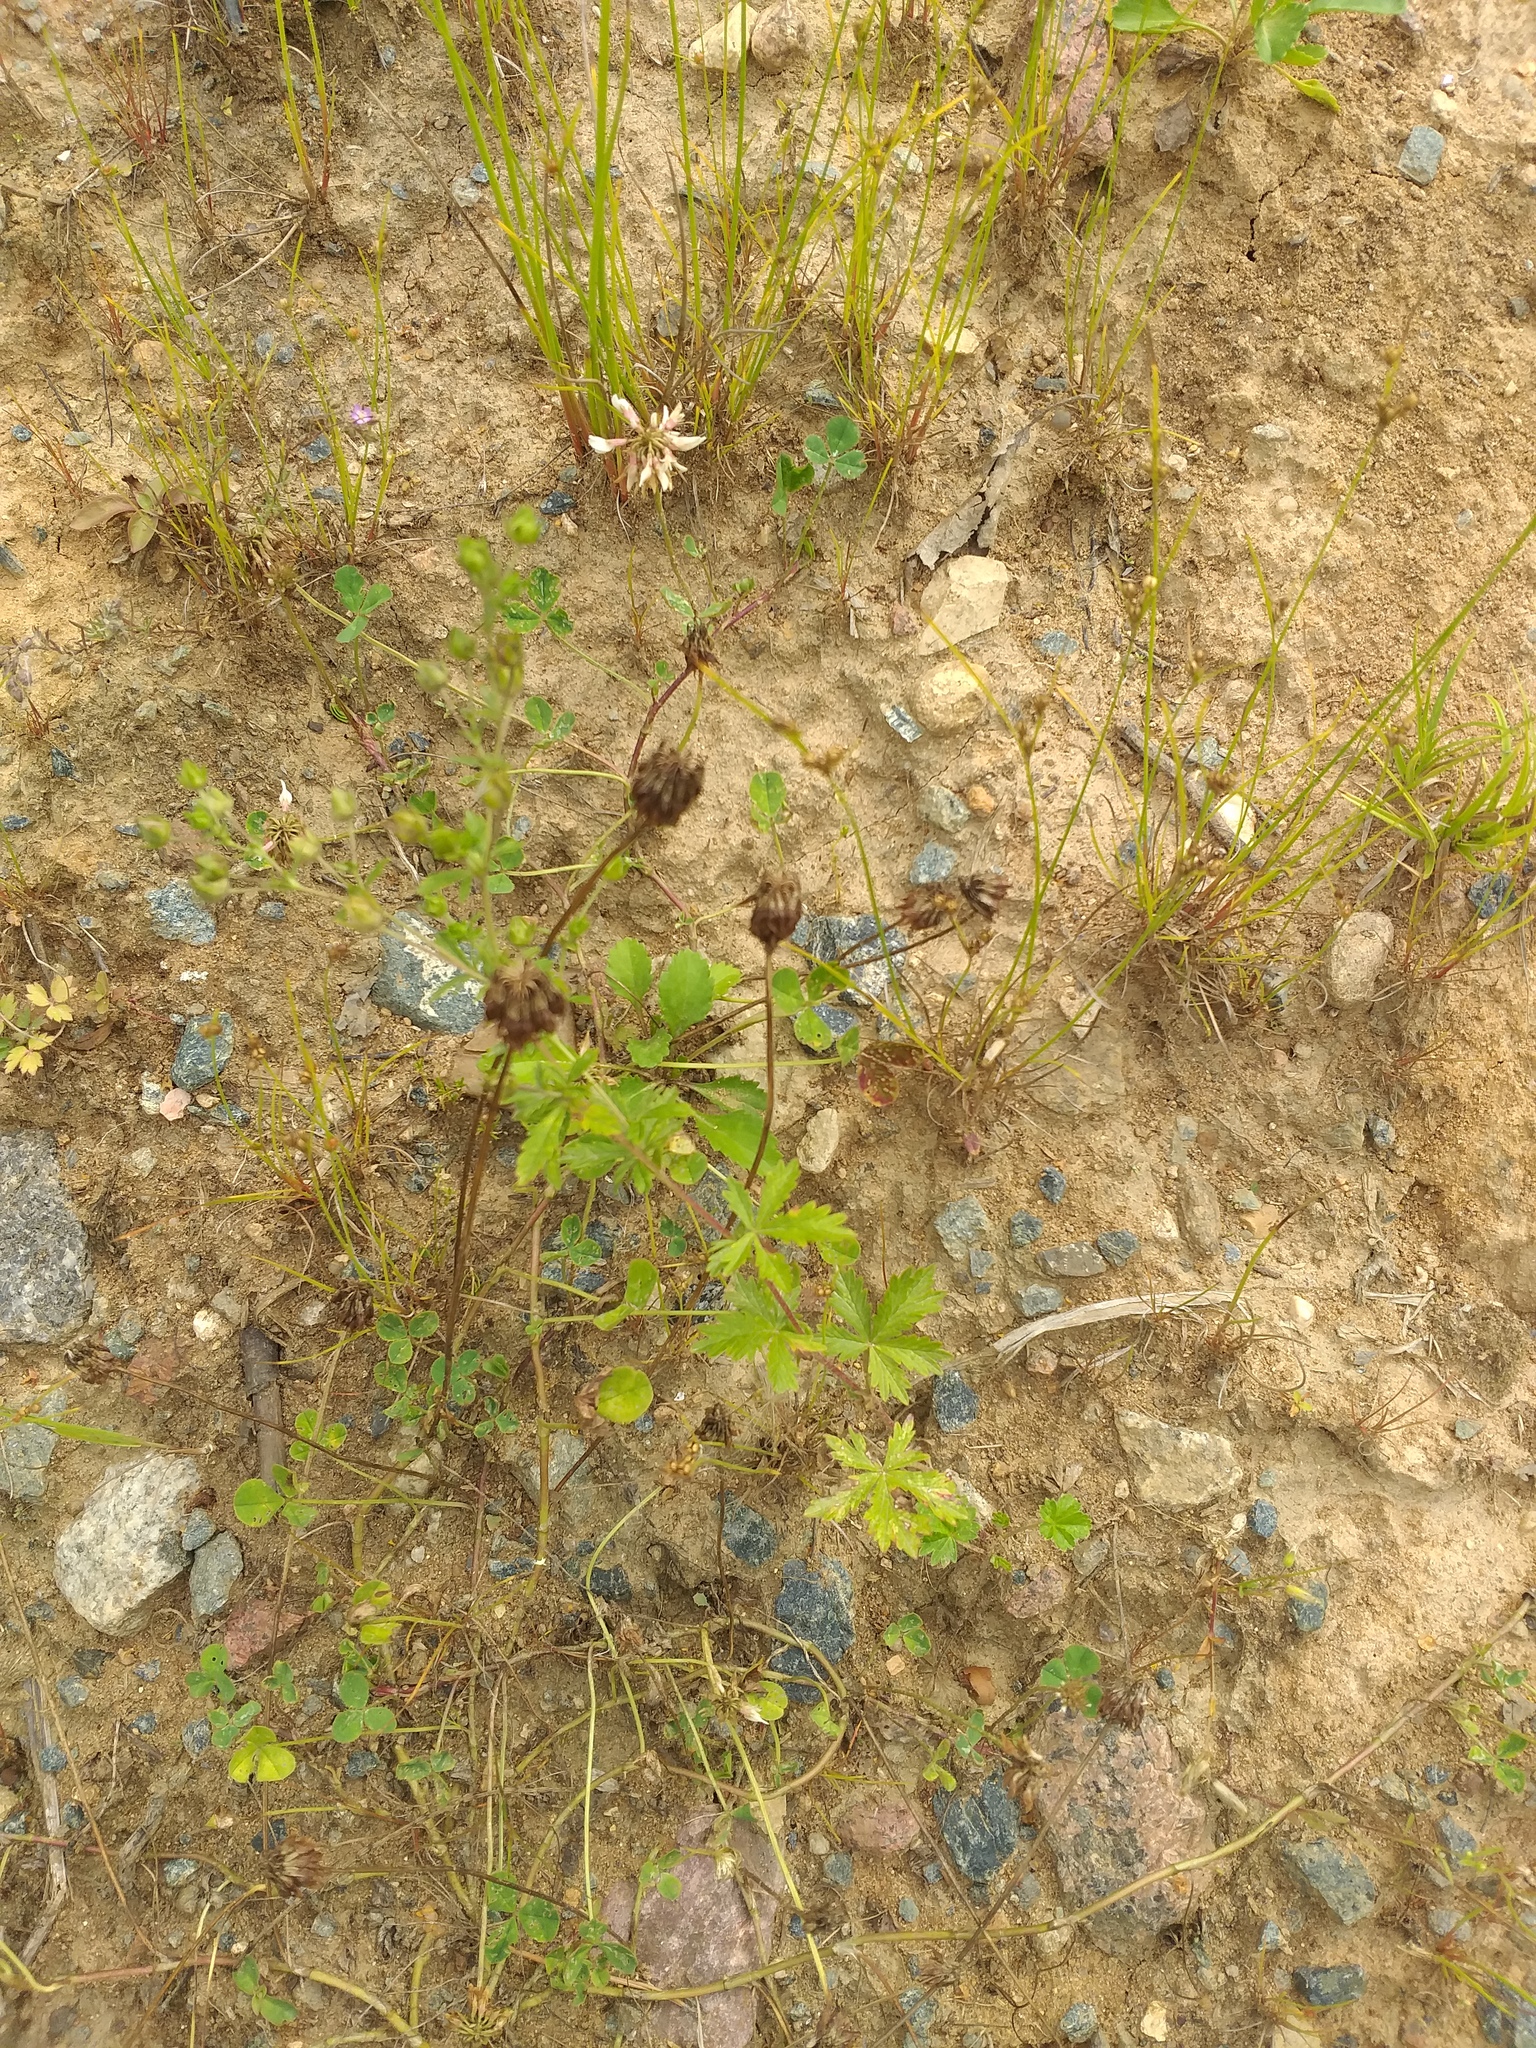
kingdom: Plantae
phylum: Tracheophyta
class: Magnoliopsida
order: Fabales
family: Fabaceae
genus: Trifolium
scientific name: Trifolium repens
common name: White clover
